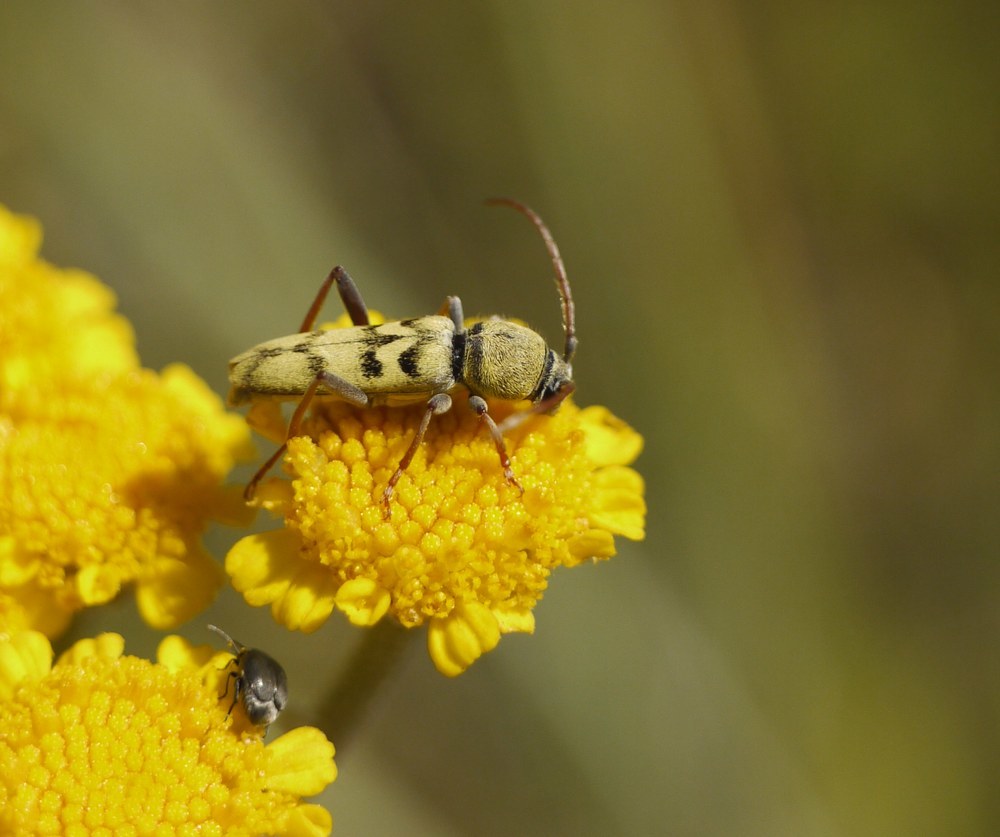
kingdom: Animalia
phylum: Arthropoda
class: Insecta
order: Coleoptera
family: Cerambycidae
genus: Plagionotus
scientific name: Plagionotus floralis
